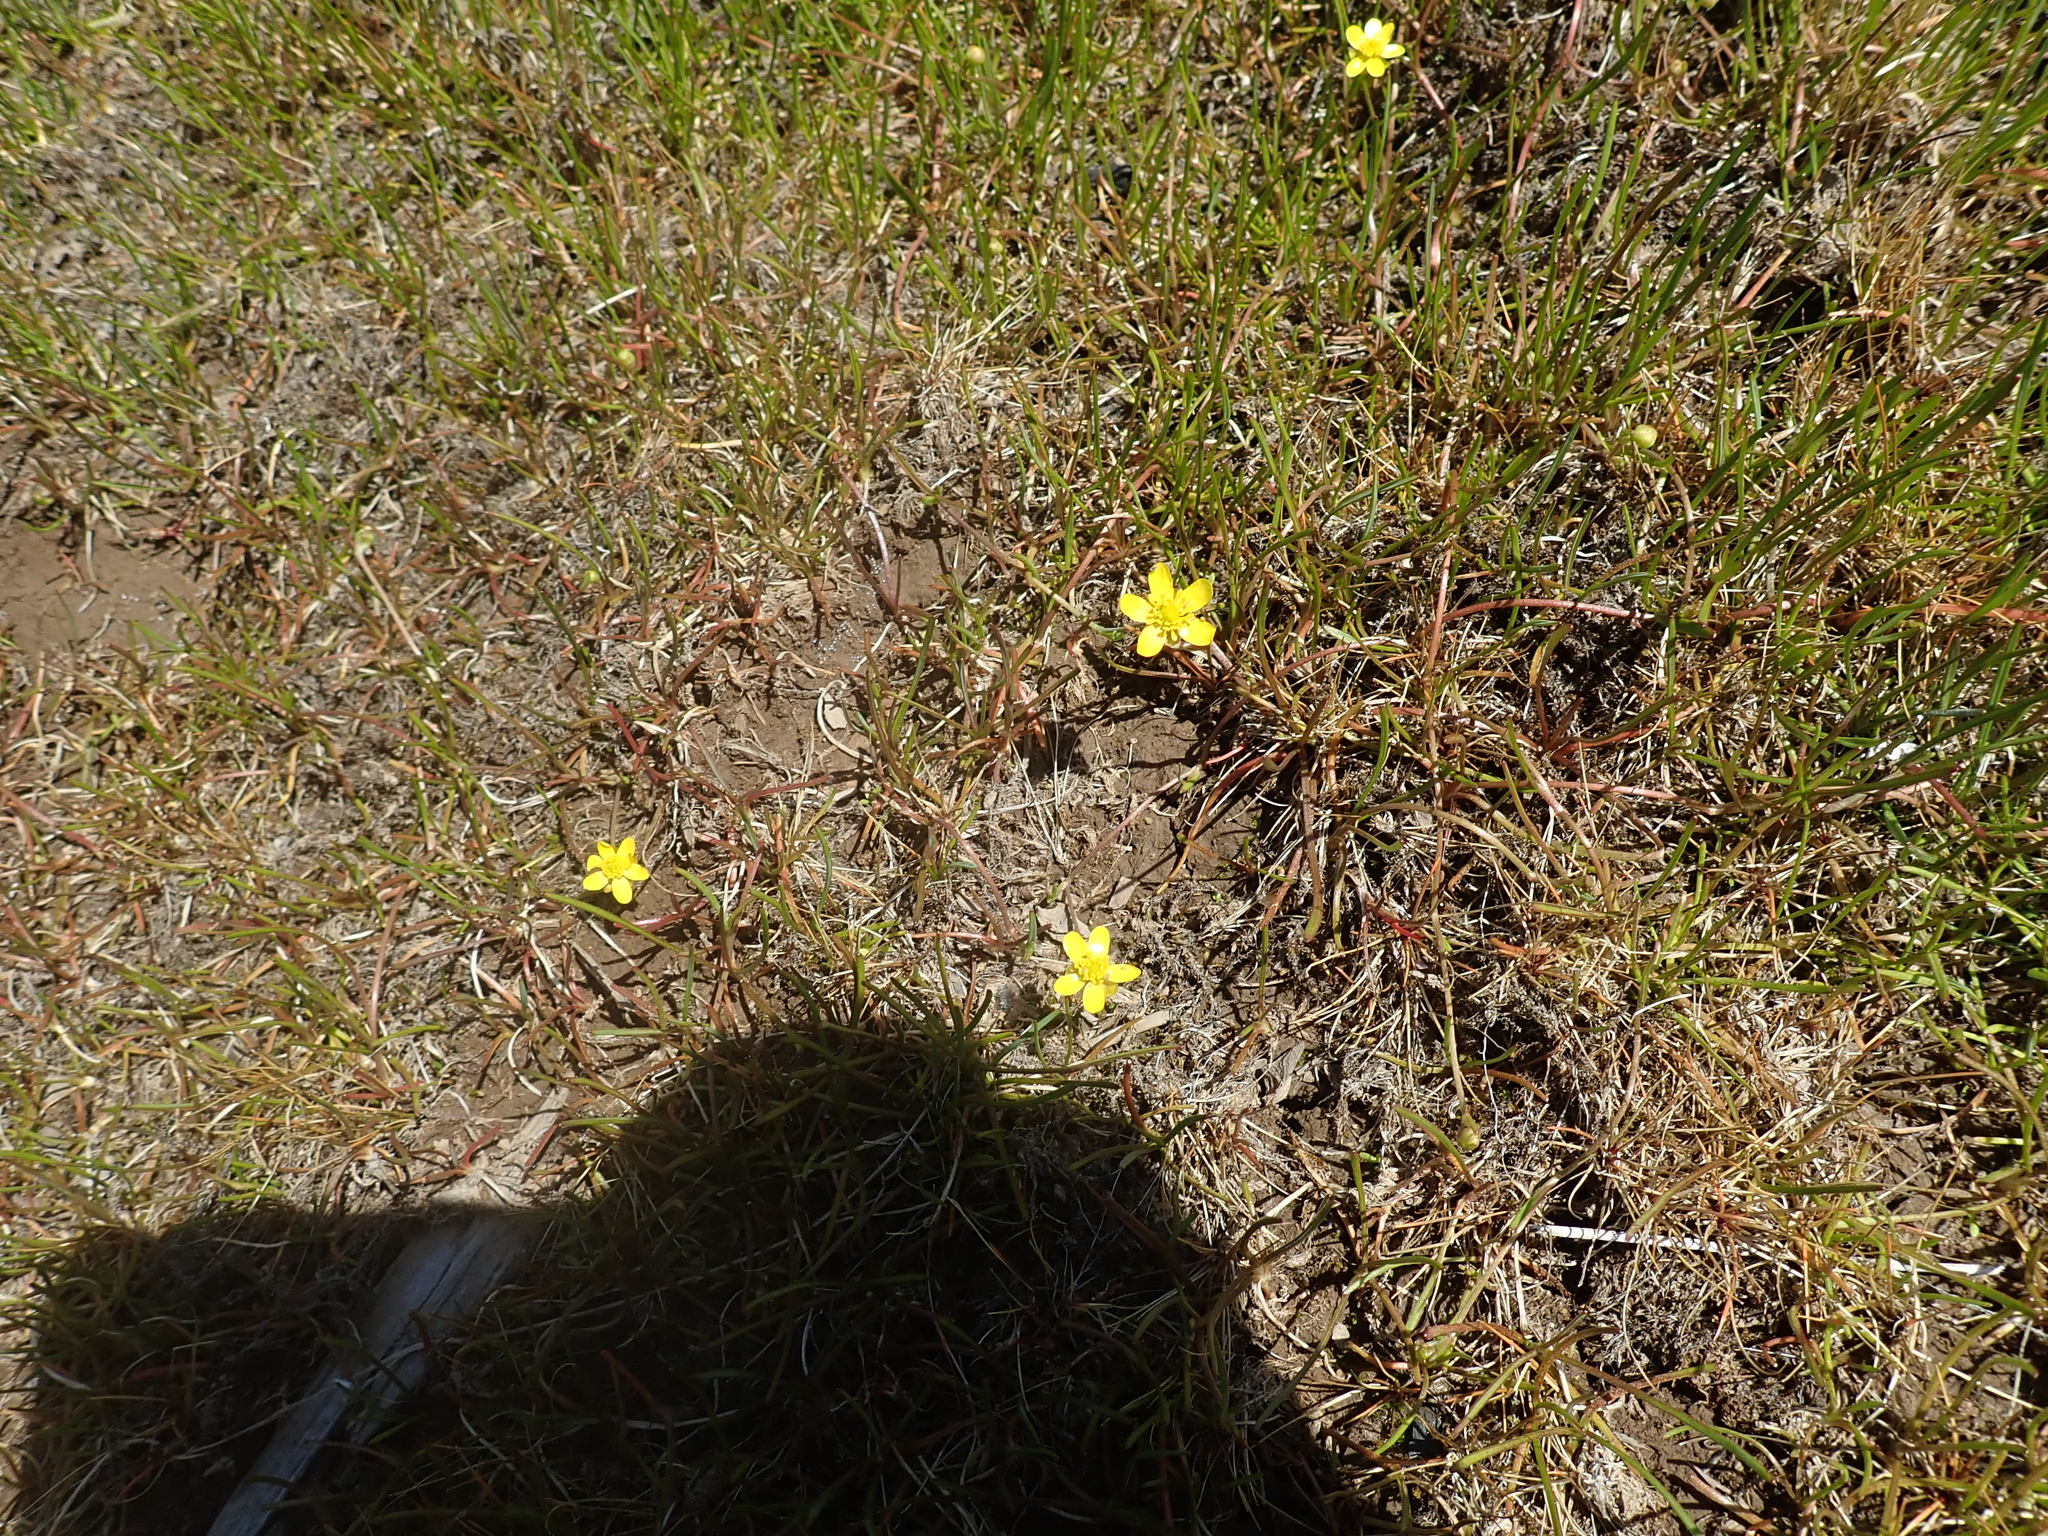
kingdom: Plantae
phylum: Tracheophyta
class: Magnoliopsida
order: Ranunculales
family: Ranunculaceae
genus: Ranunculus
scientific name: Ranunculus flammula
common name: Lesser spearwort
